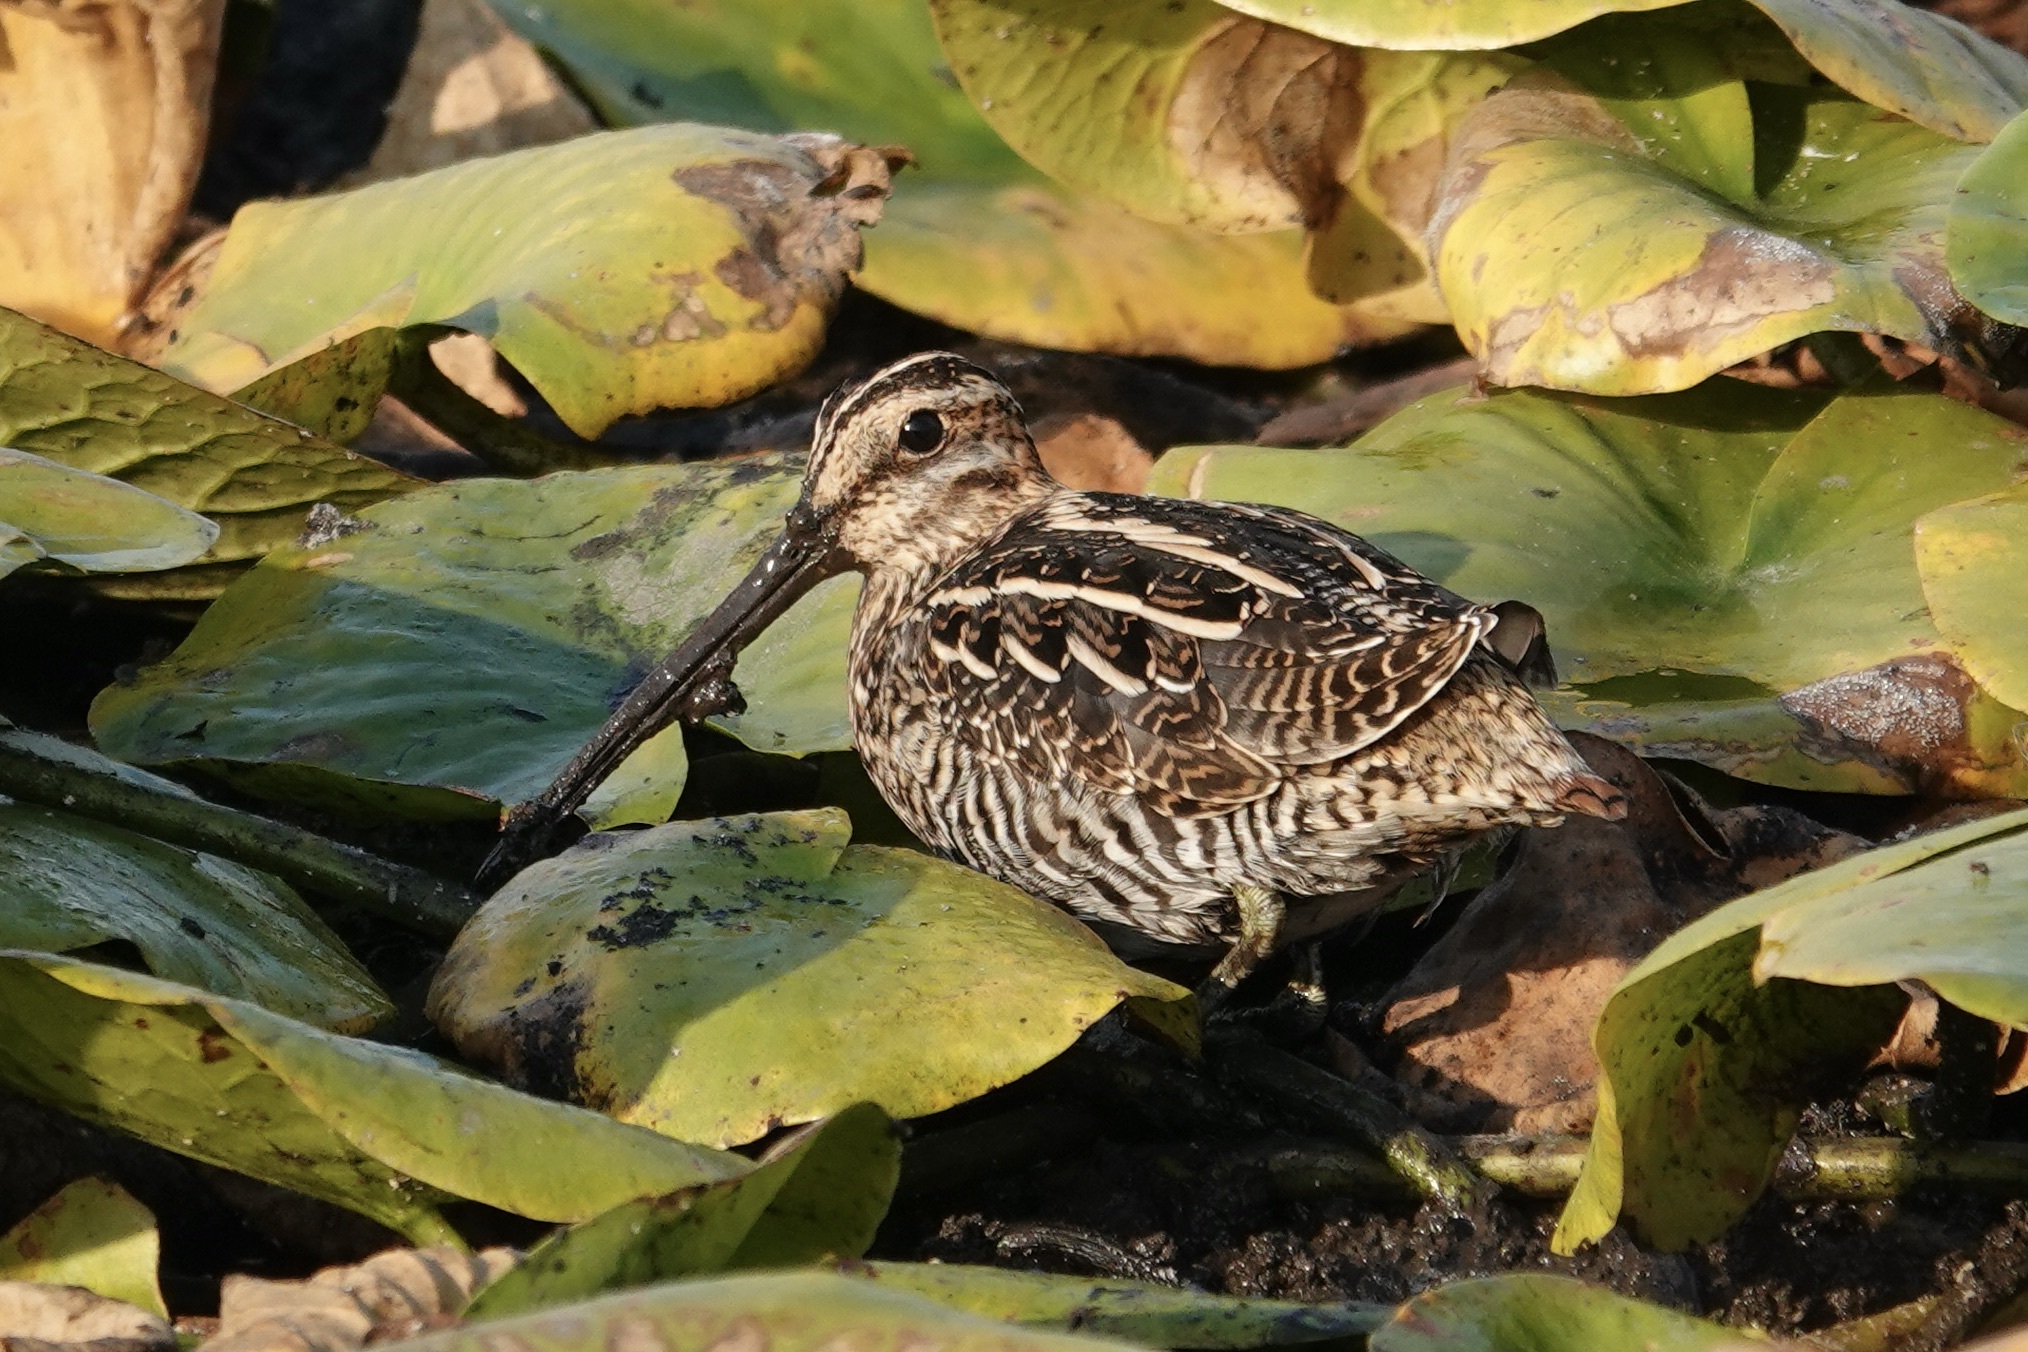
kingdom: Animalia
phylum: Chordata
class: Aves
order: Charadriiformes
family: Scolopacidae
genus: Gallinago
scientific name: Gallinago delicata
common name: Wilson's snipe
